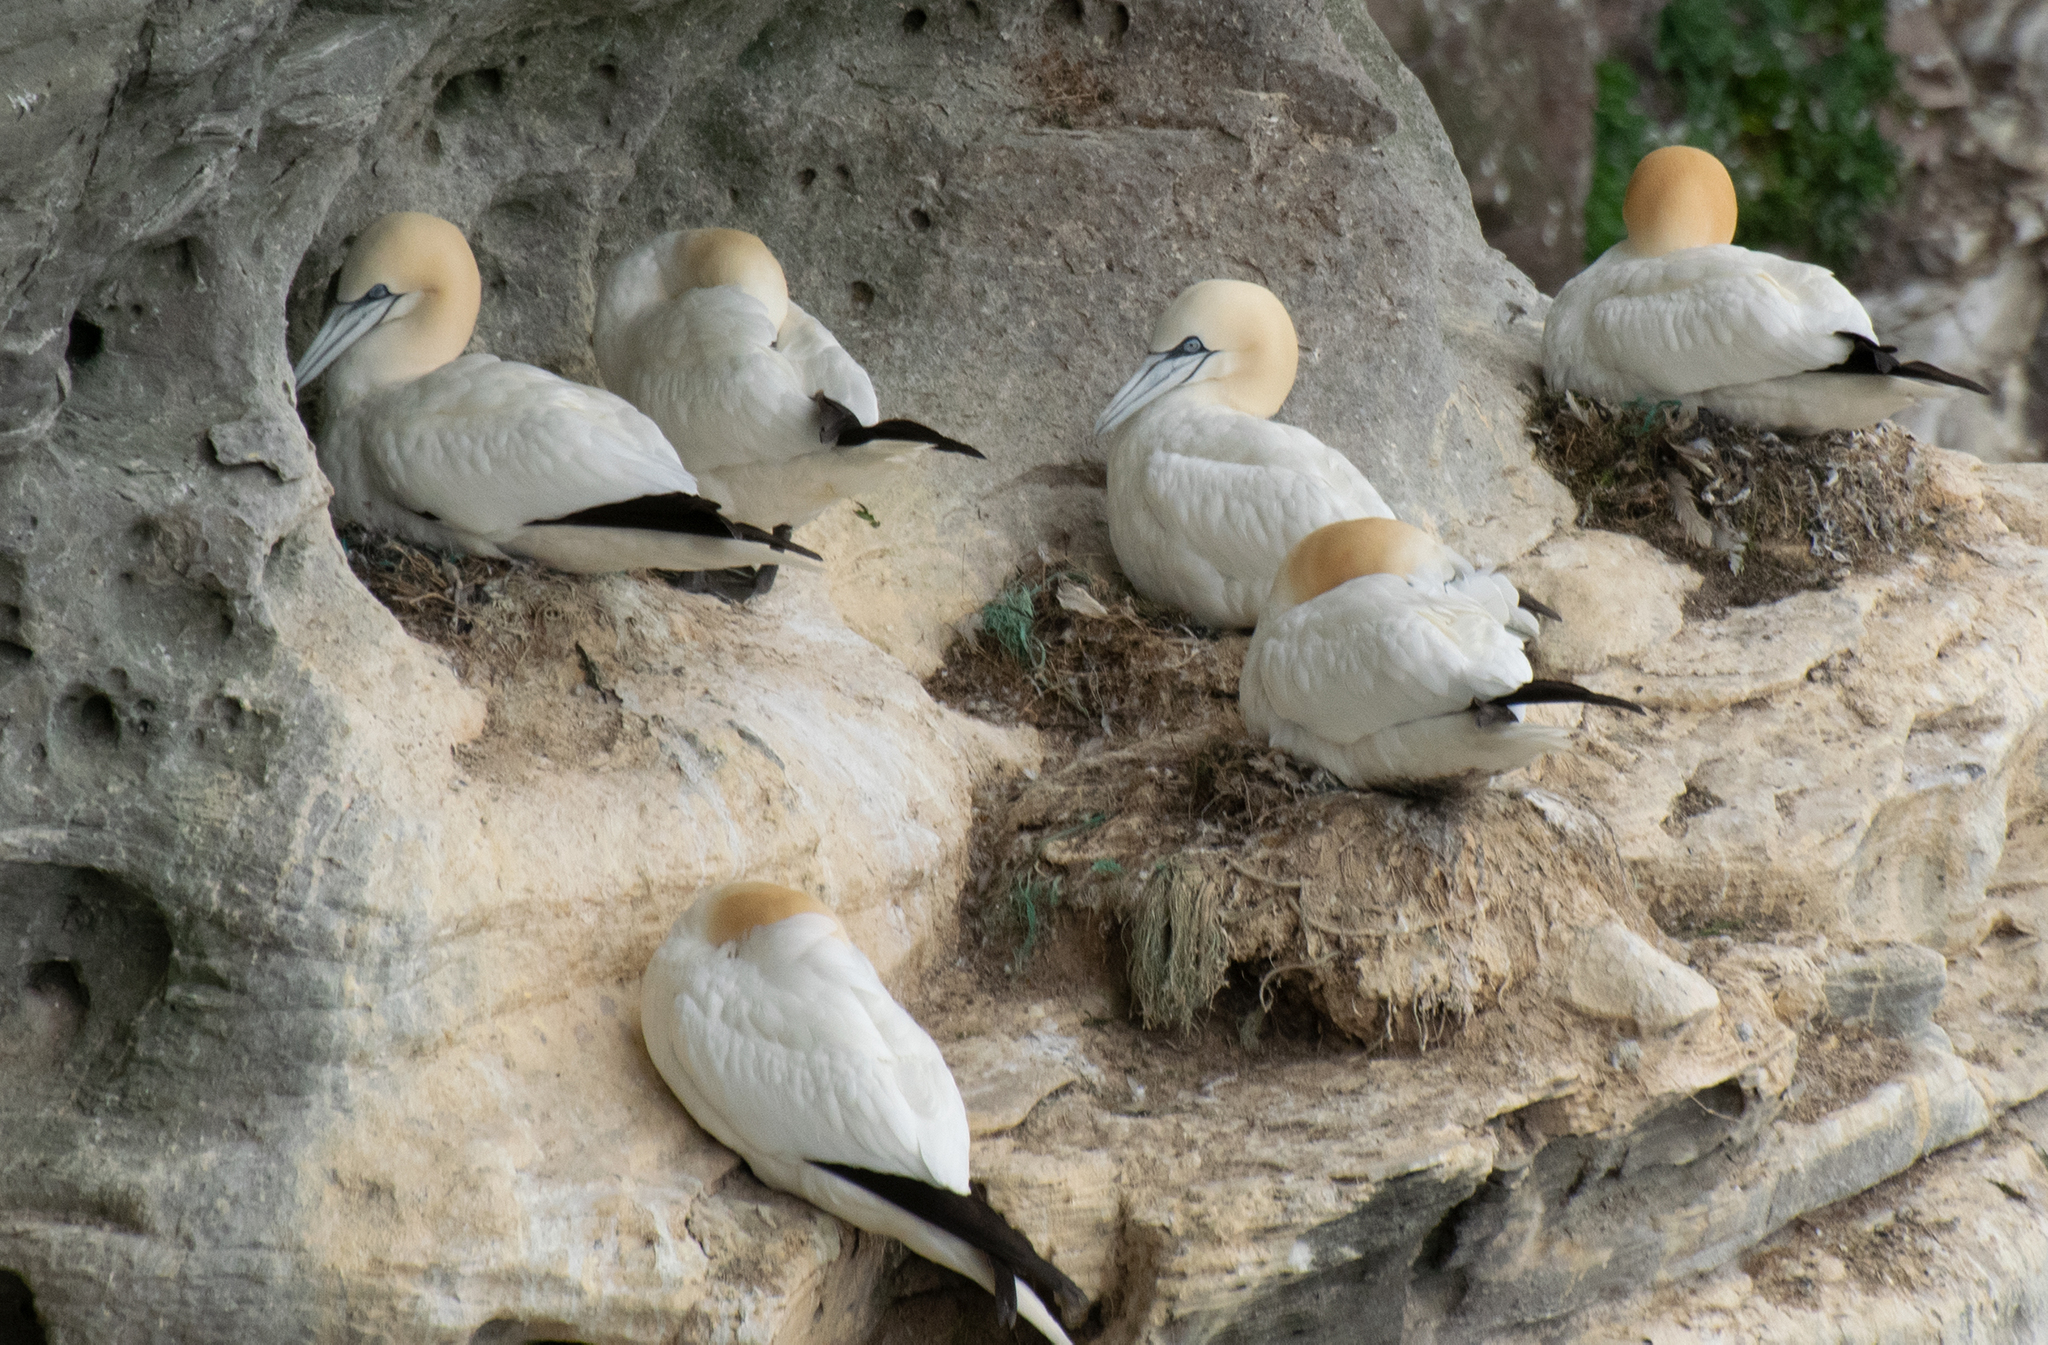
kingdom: Animalia
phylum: Chordata
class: Aves
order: Suliformes
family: Sulidae
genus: Morus
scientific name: Morus bassanus
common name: Northern gannet
